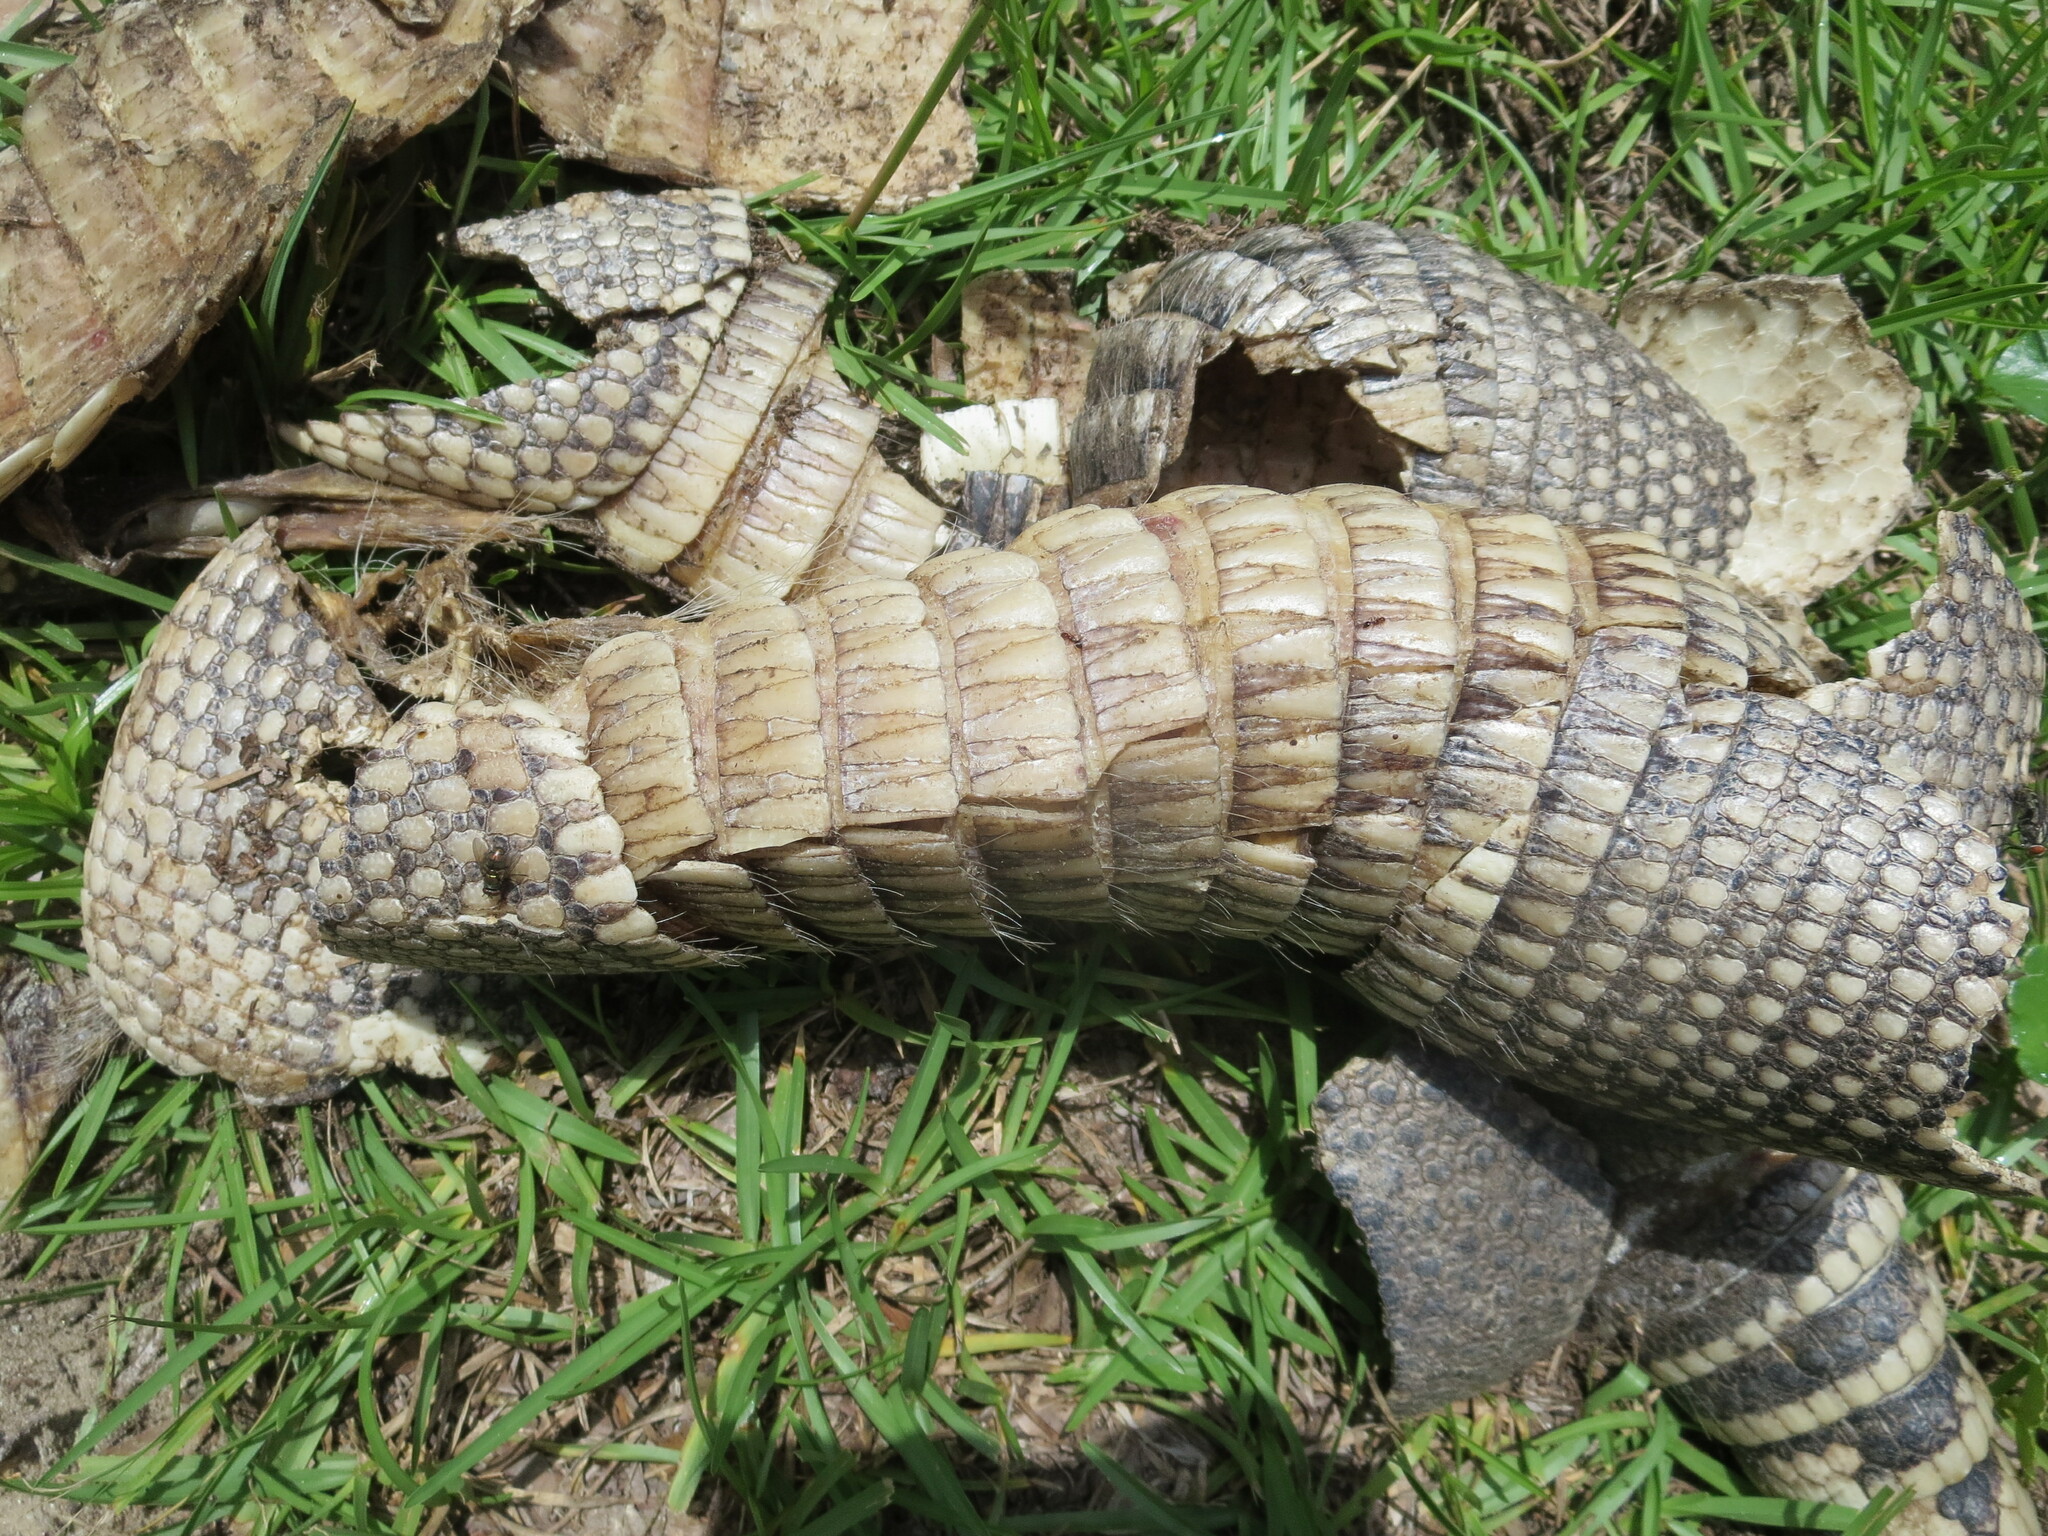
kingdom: Animalia
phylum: Chordata
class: Mammalia
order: Cingulata
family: Dasypodidae
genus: Dasypus
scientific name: Dasypus novemcinctus
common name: Nine-banded armadillo
